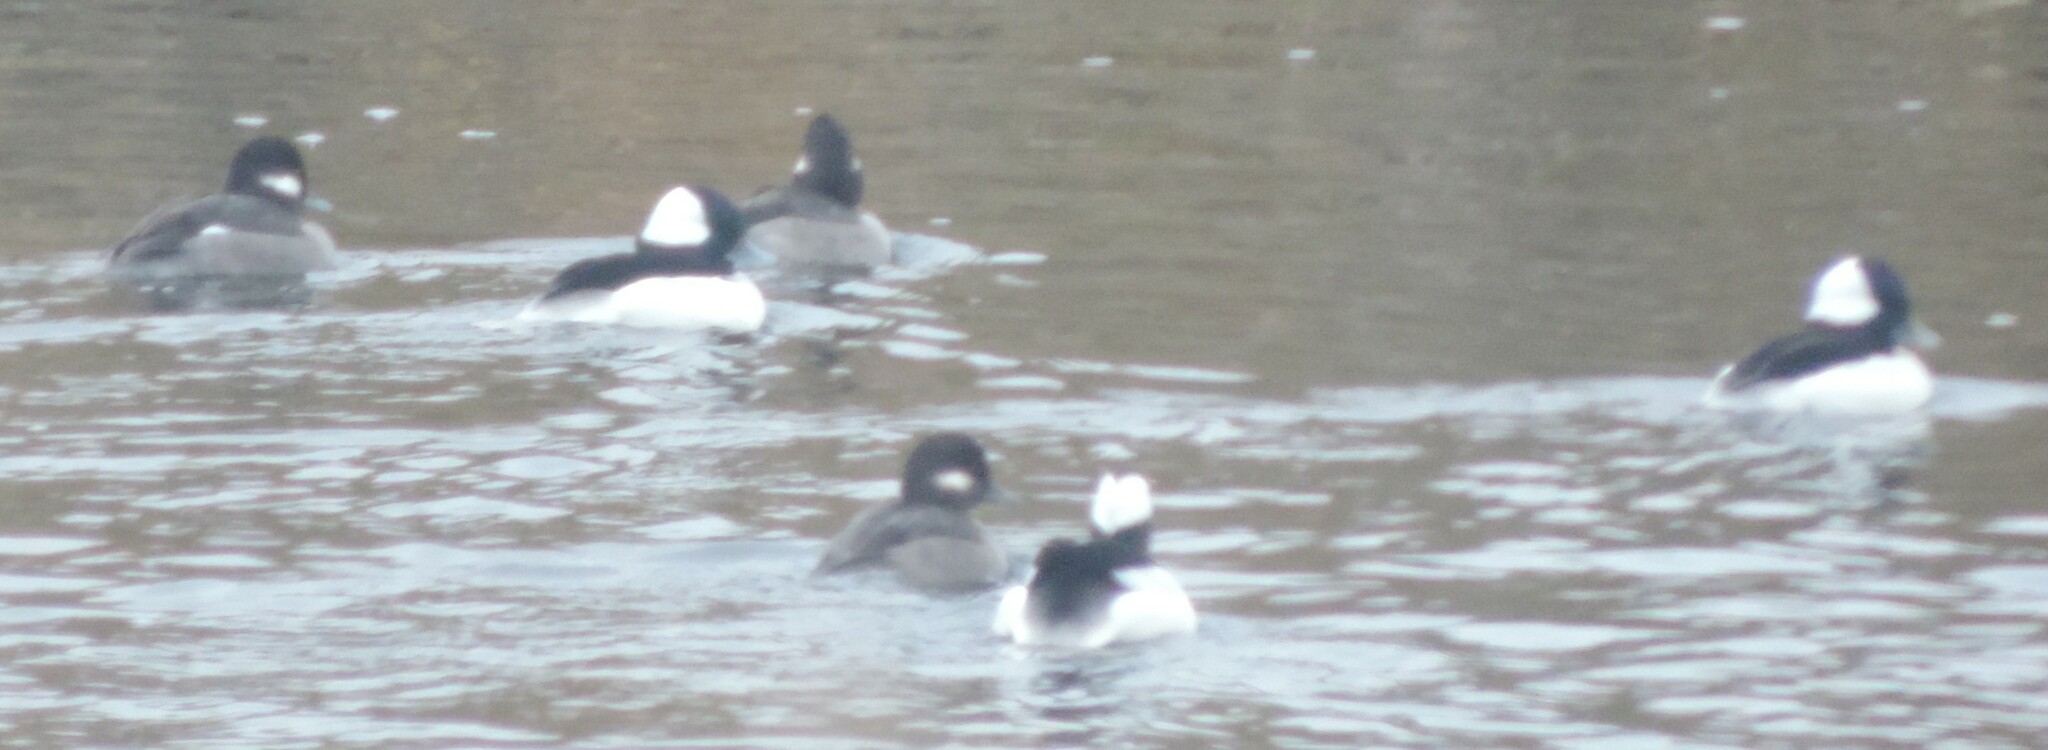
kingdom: Animalia
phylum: Chordata
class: Aves
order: Anseriformes
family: Anatidae
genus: Bucephala
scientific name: Bucephala albeola
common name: Bufflehead
